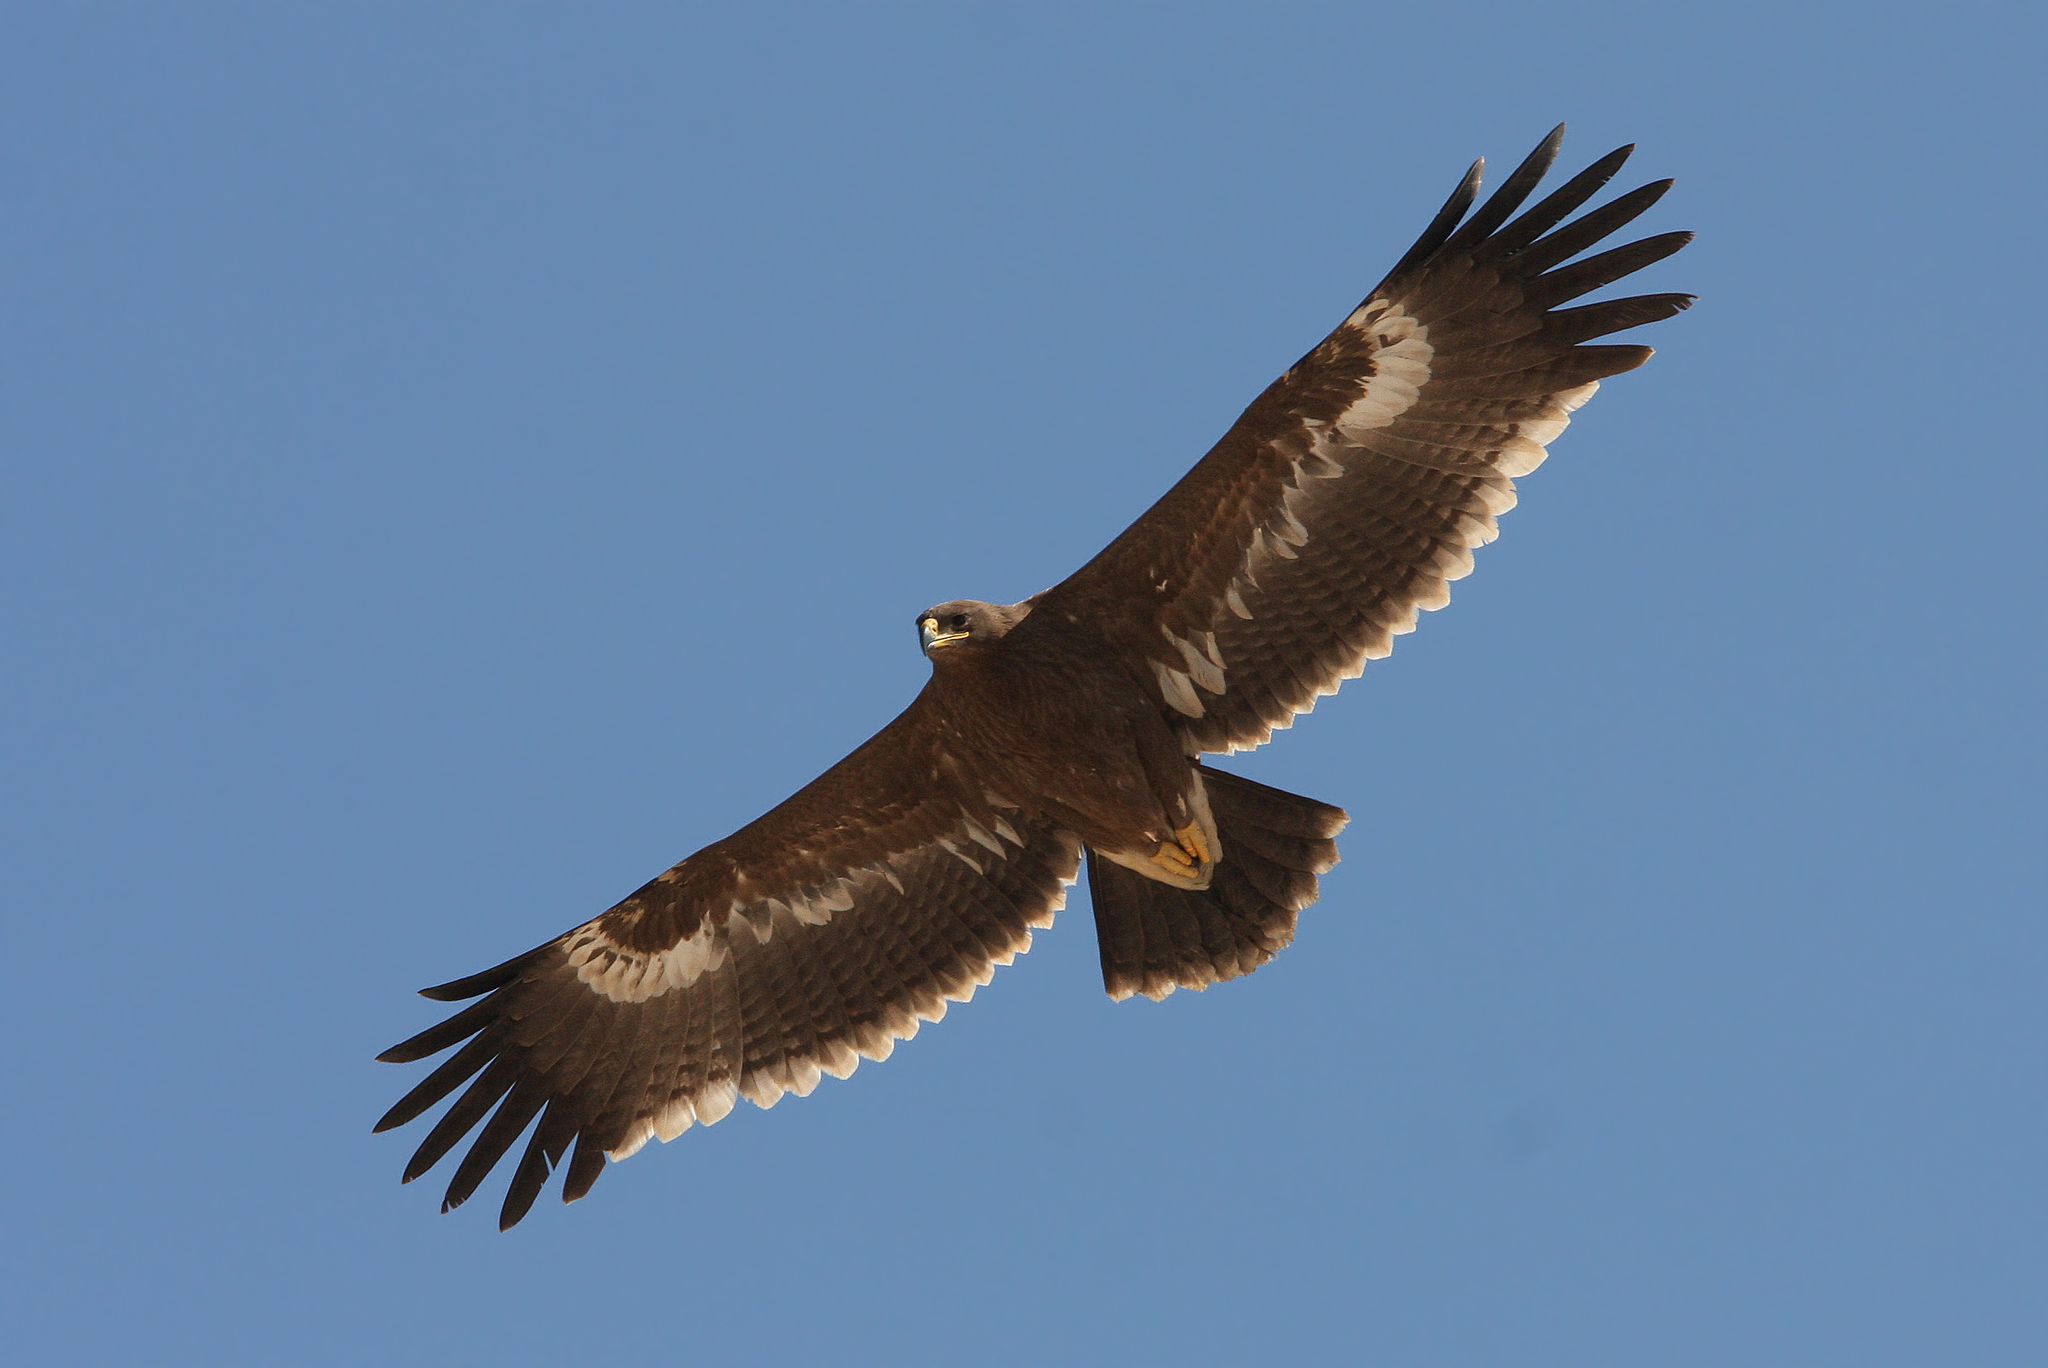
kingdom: Animalia
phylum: Chordata
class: Aves
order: Accipitriformes
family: Accipitridae
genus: Aquila
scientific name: Aquila nipalensis
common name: Steppe eagle
